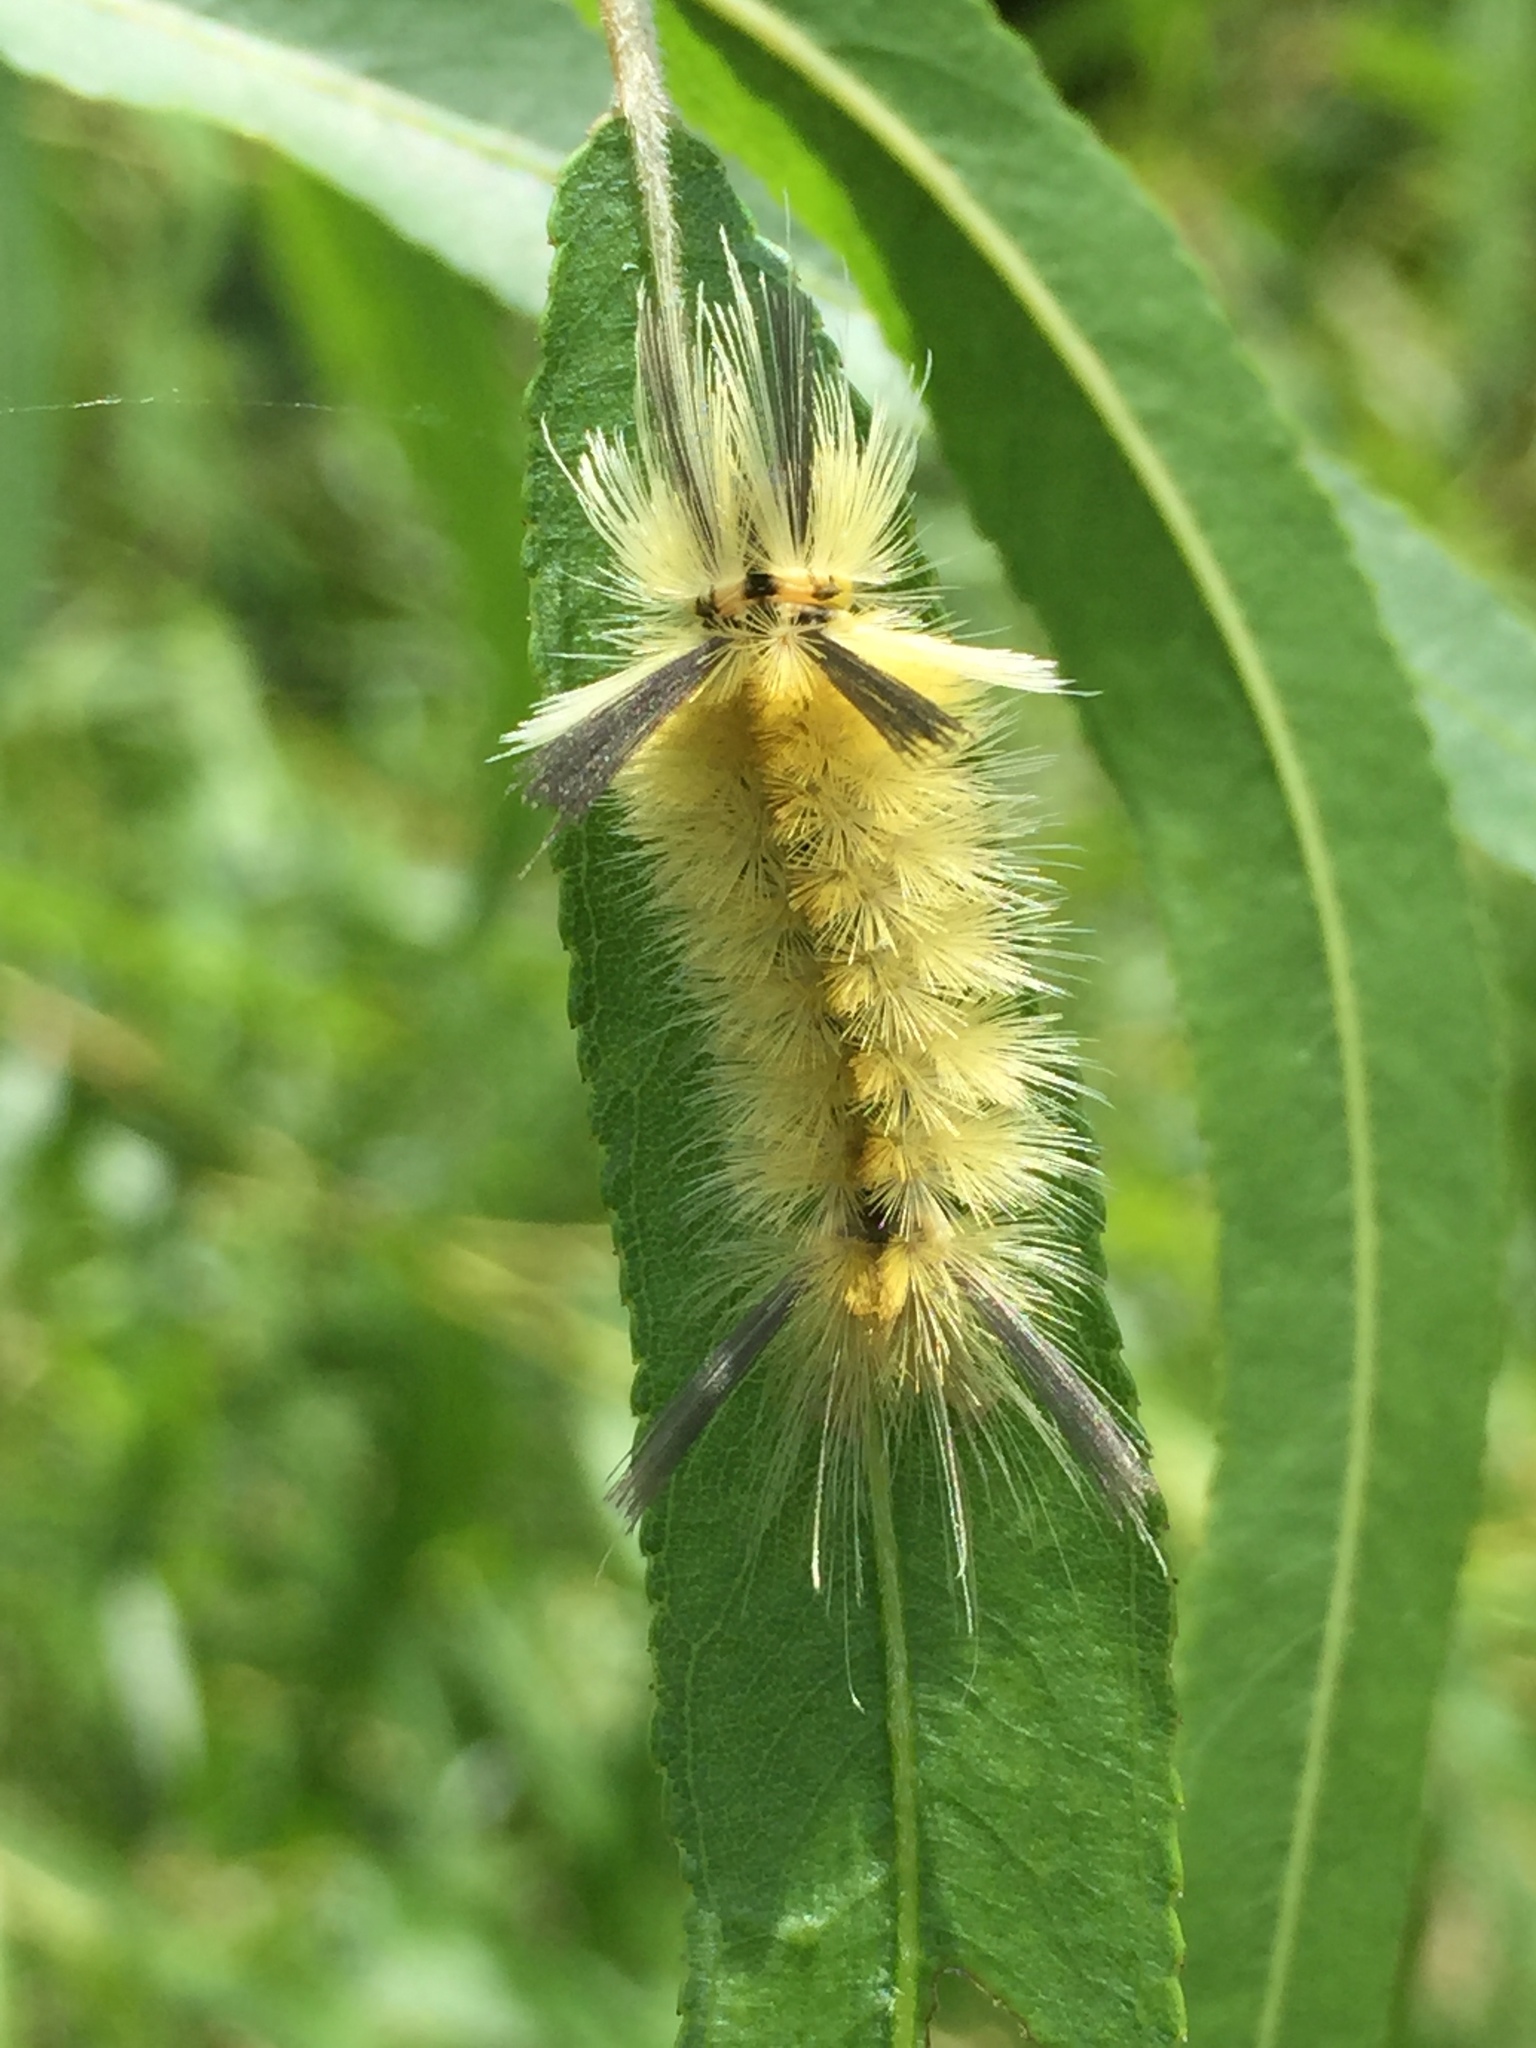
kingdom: Animalia
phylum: Arthropoda
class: Insecta
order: Lepidoptera
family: Erebidae
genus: Halysidota
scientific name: Halysidota tessellaris
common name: Banded tussock moth
